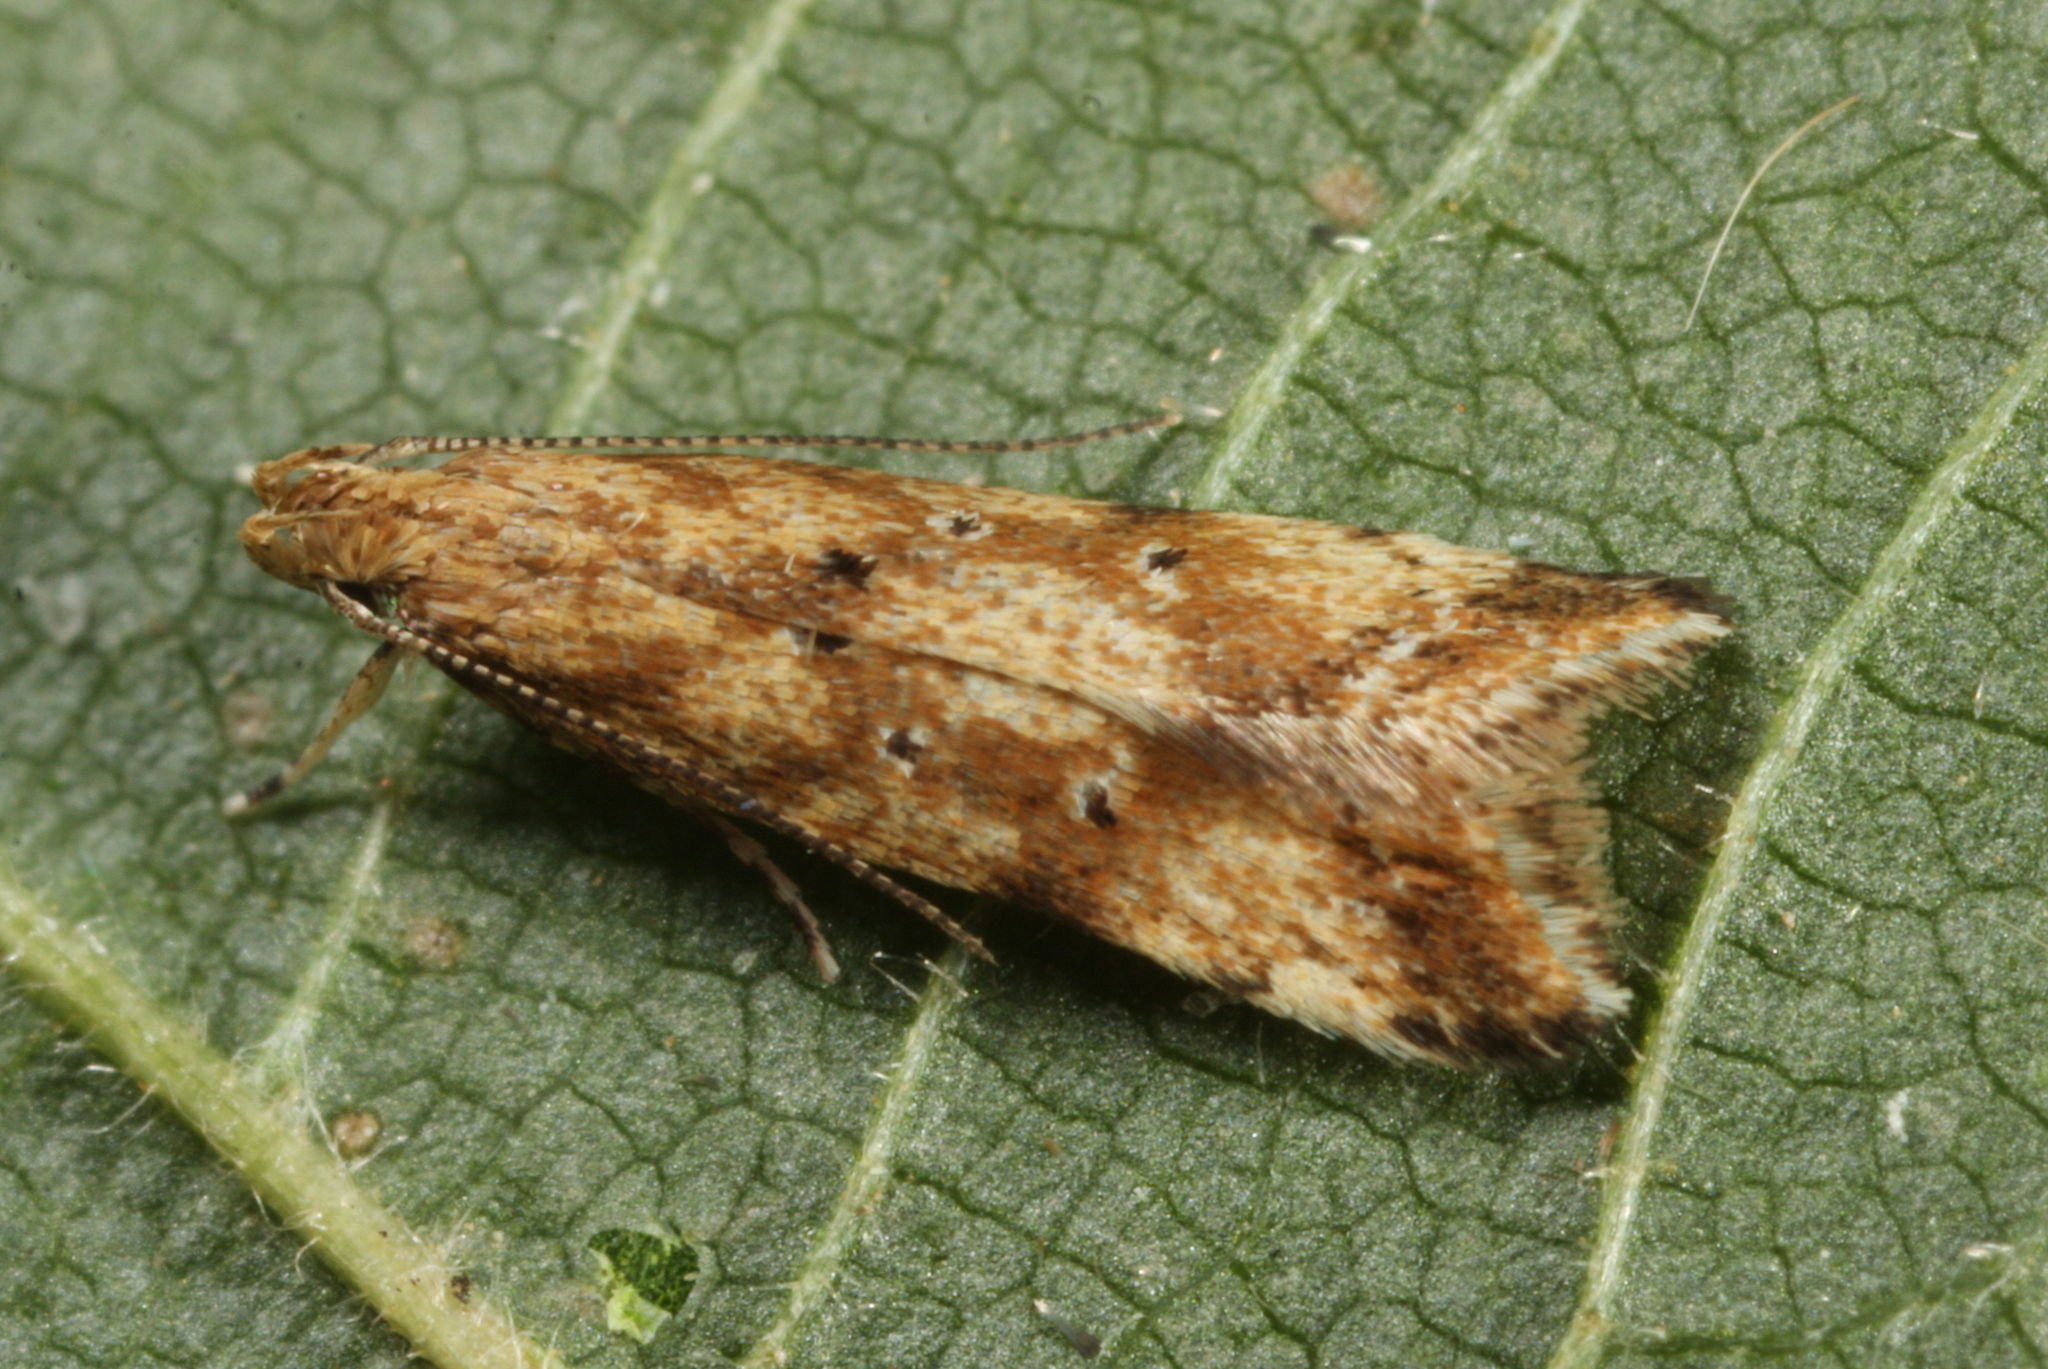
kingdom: Animalia
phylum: Arthropoda
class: Insecta
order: Lepidoptera
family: Gelechiidae
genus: Brachmia
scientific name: Brachmia blandella
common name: Gorse crest
